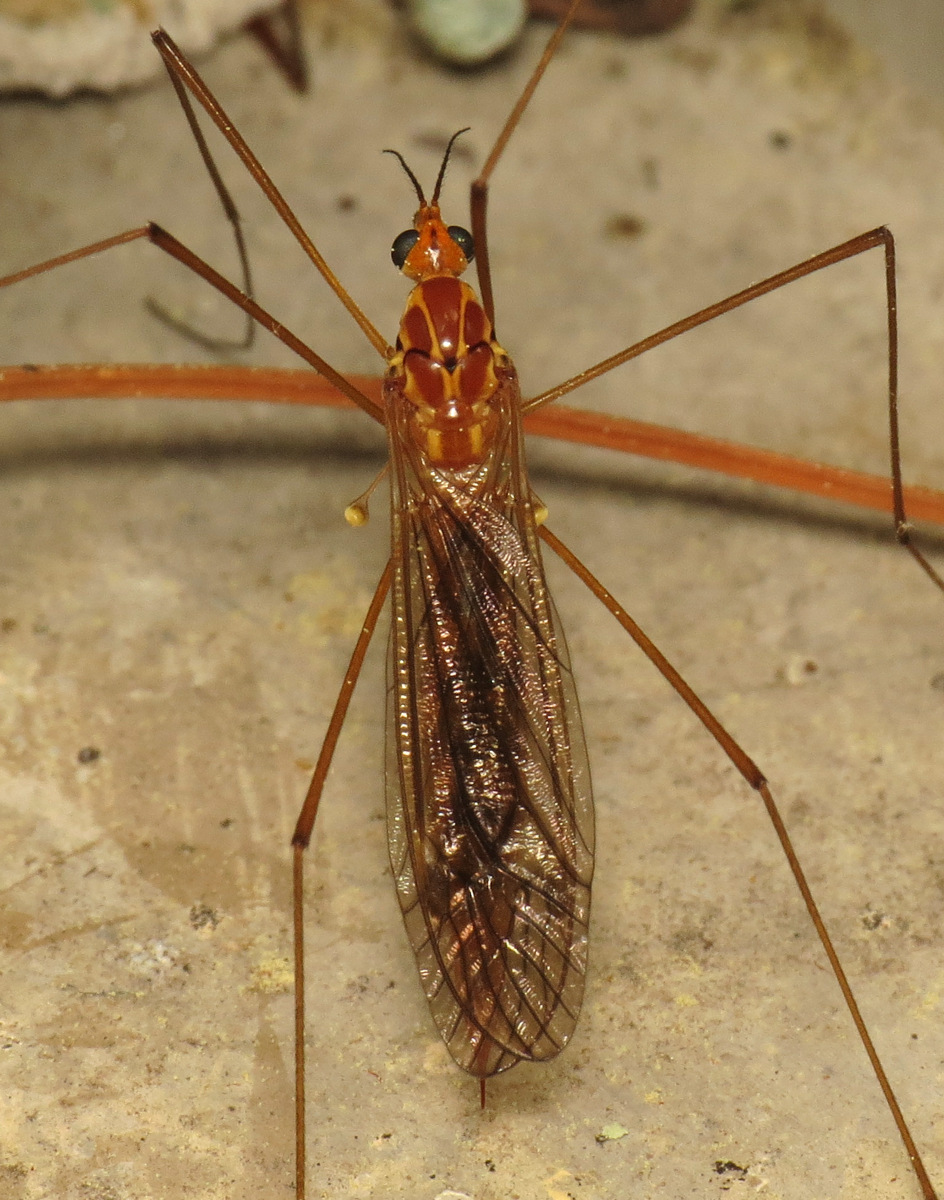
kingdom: Animalia
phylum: Arthropoda
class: Insecta
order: Diptera
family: Tipulidae
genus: Nephrotoma
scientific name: Nephrotoma ferruginea
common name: Ferruginous tiger crane fly
